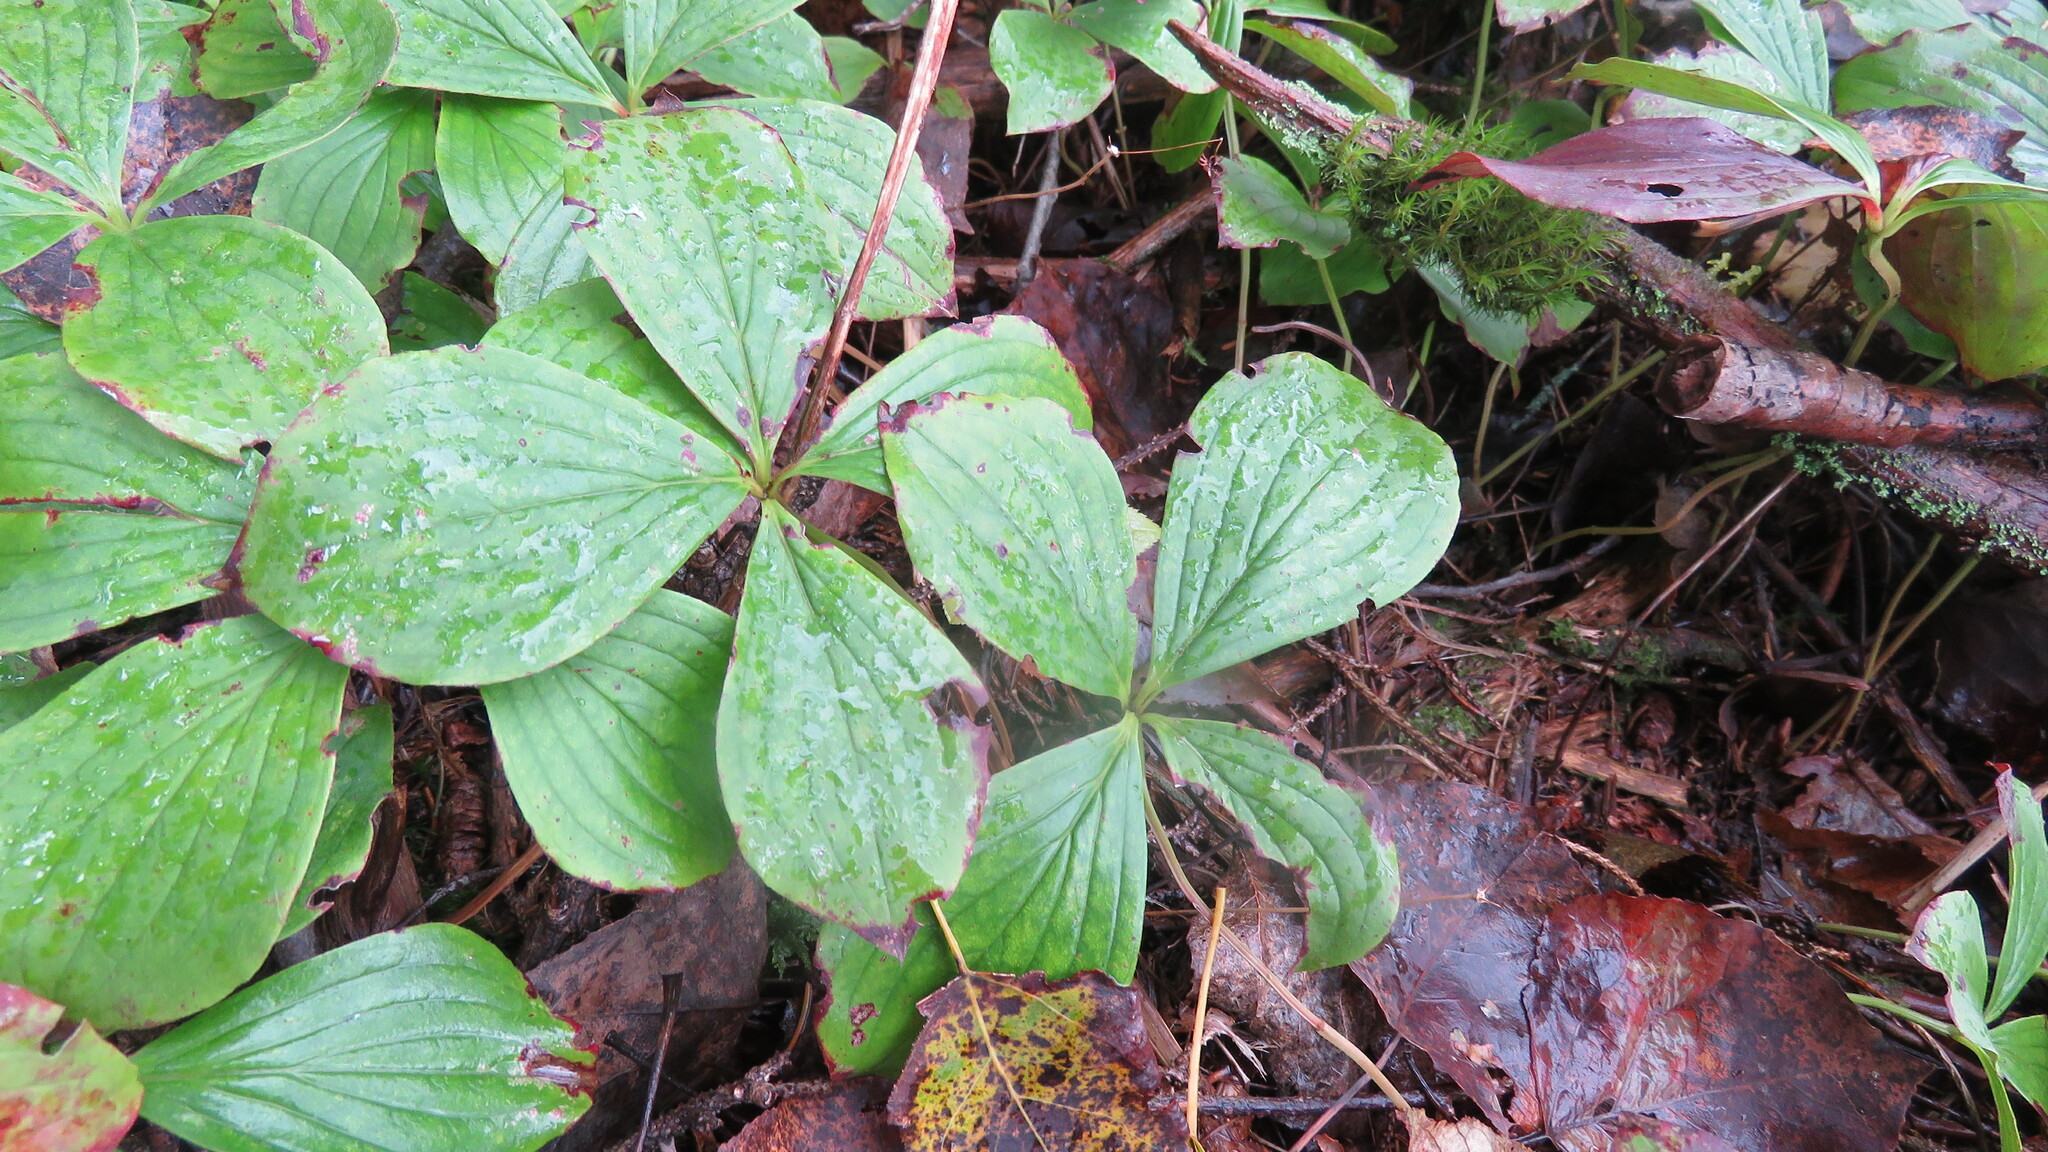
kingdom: Plantae
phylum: Tracheophyta
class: Magnoliopsida
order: Cornales
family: Cornaceae
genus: Cornus
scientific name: Cornus canadensis
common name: Creeping dogwood
